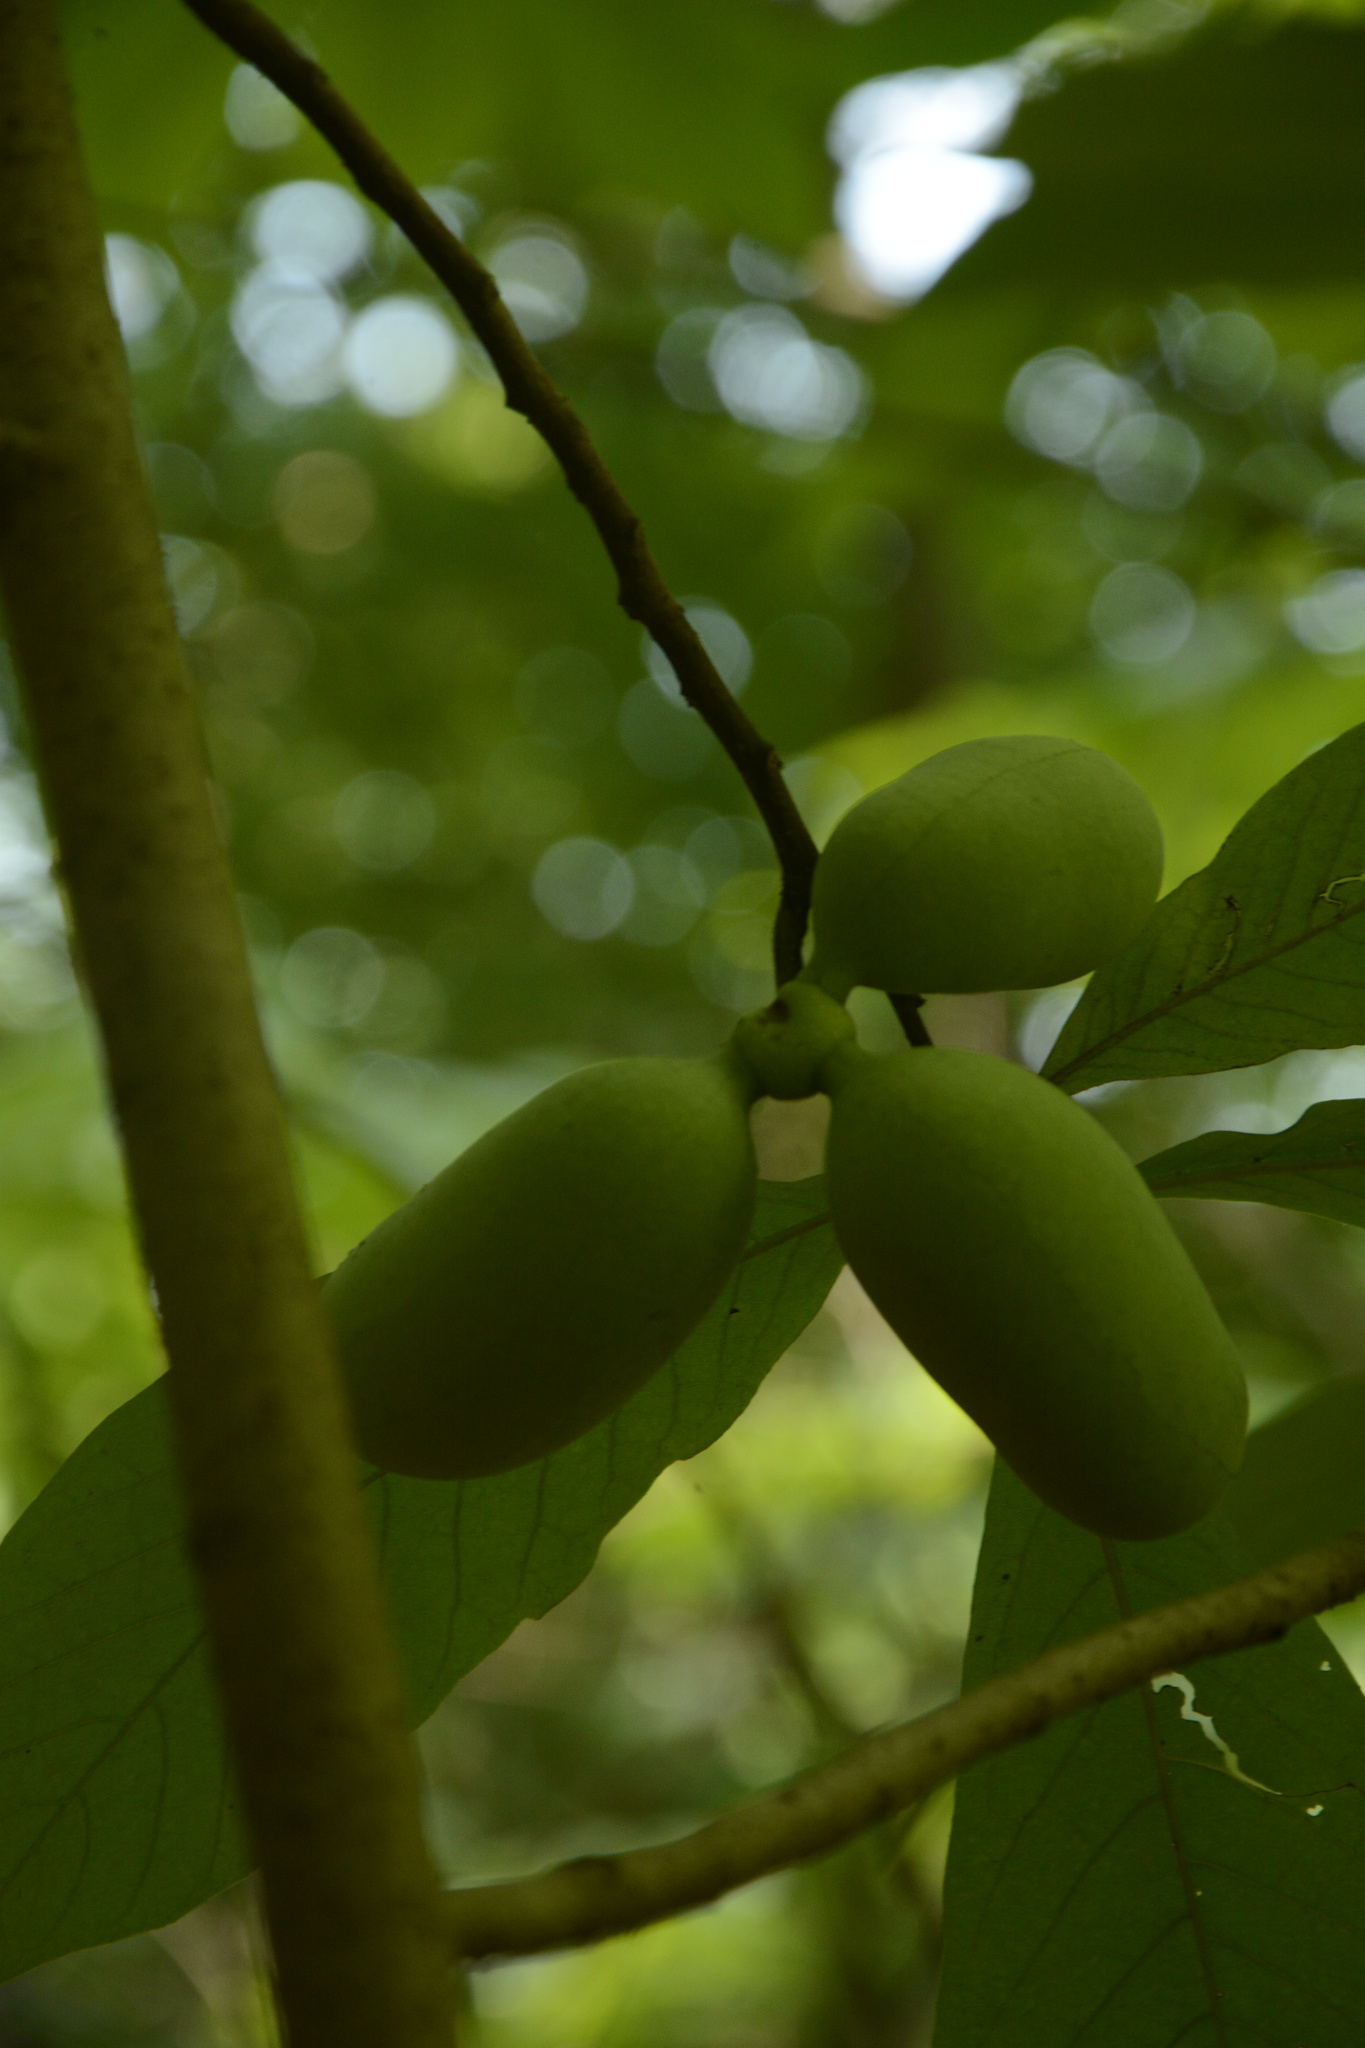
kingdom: Plantae
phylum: Tracheophyta
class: Magnoliopsida
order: Magnoliales
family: Annonaceae
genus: Asimina
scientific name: Asimina triloba
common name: Dog-banana
